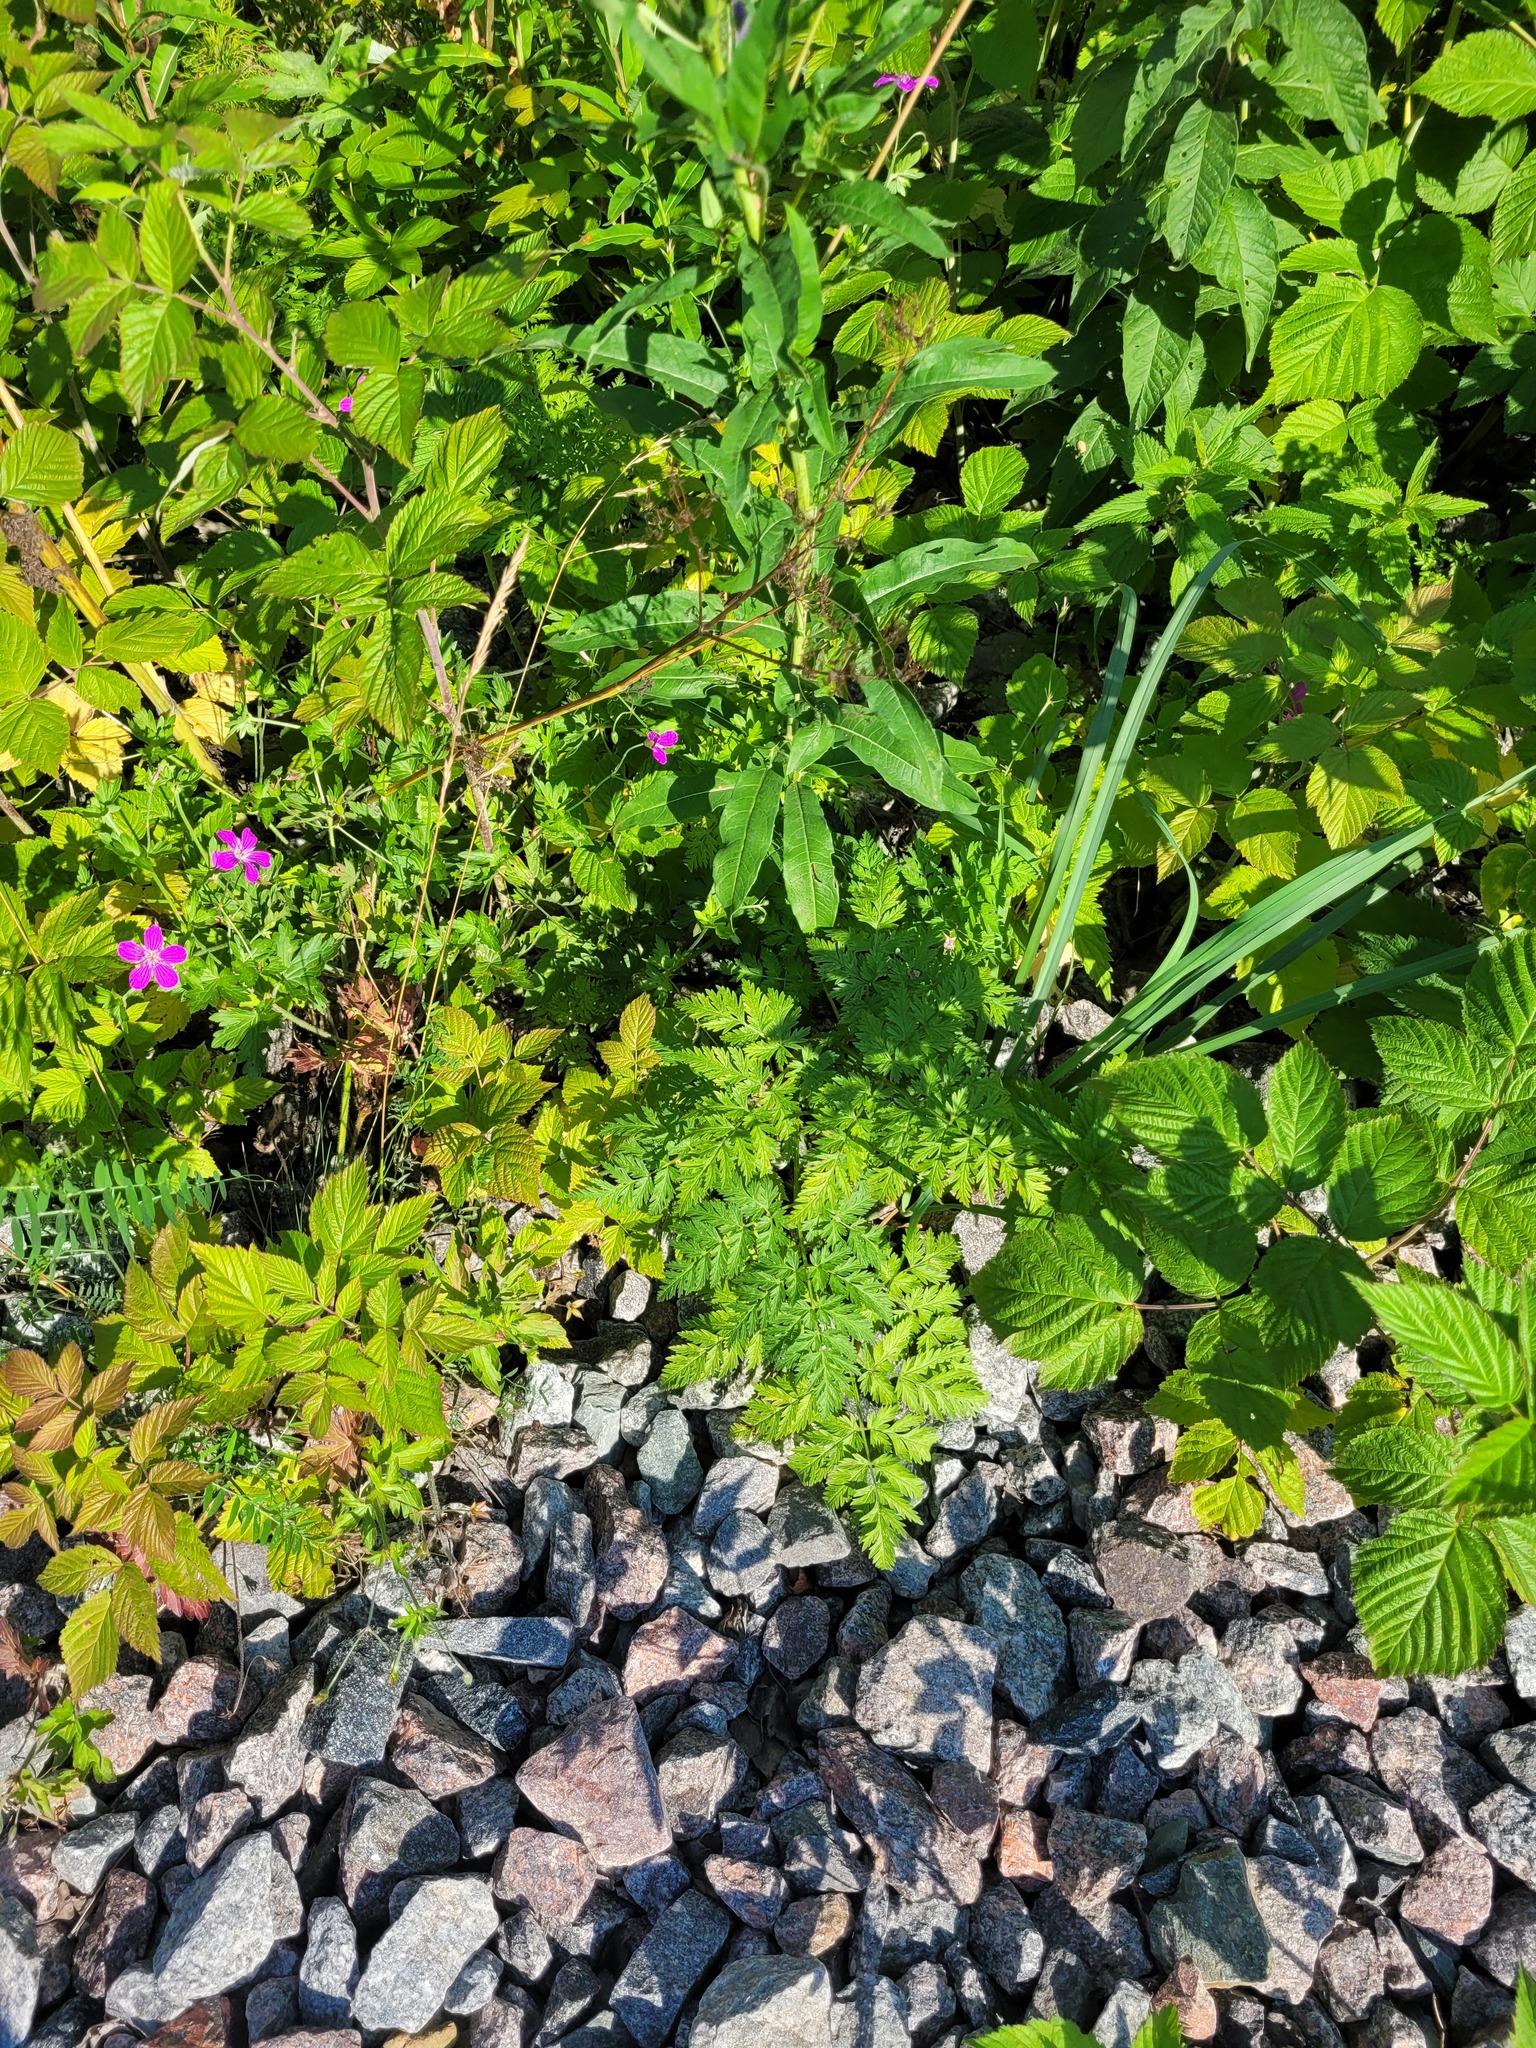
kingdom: Plantae
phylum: Tracheophyta
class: Magnoliopsida
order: Geraniales
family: Geraniaceae
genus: Geranium
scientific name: Geranium palustre
